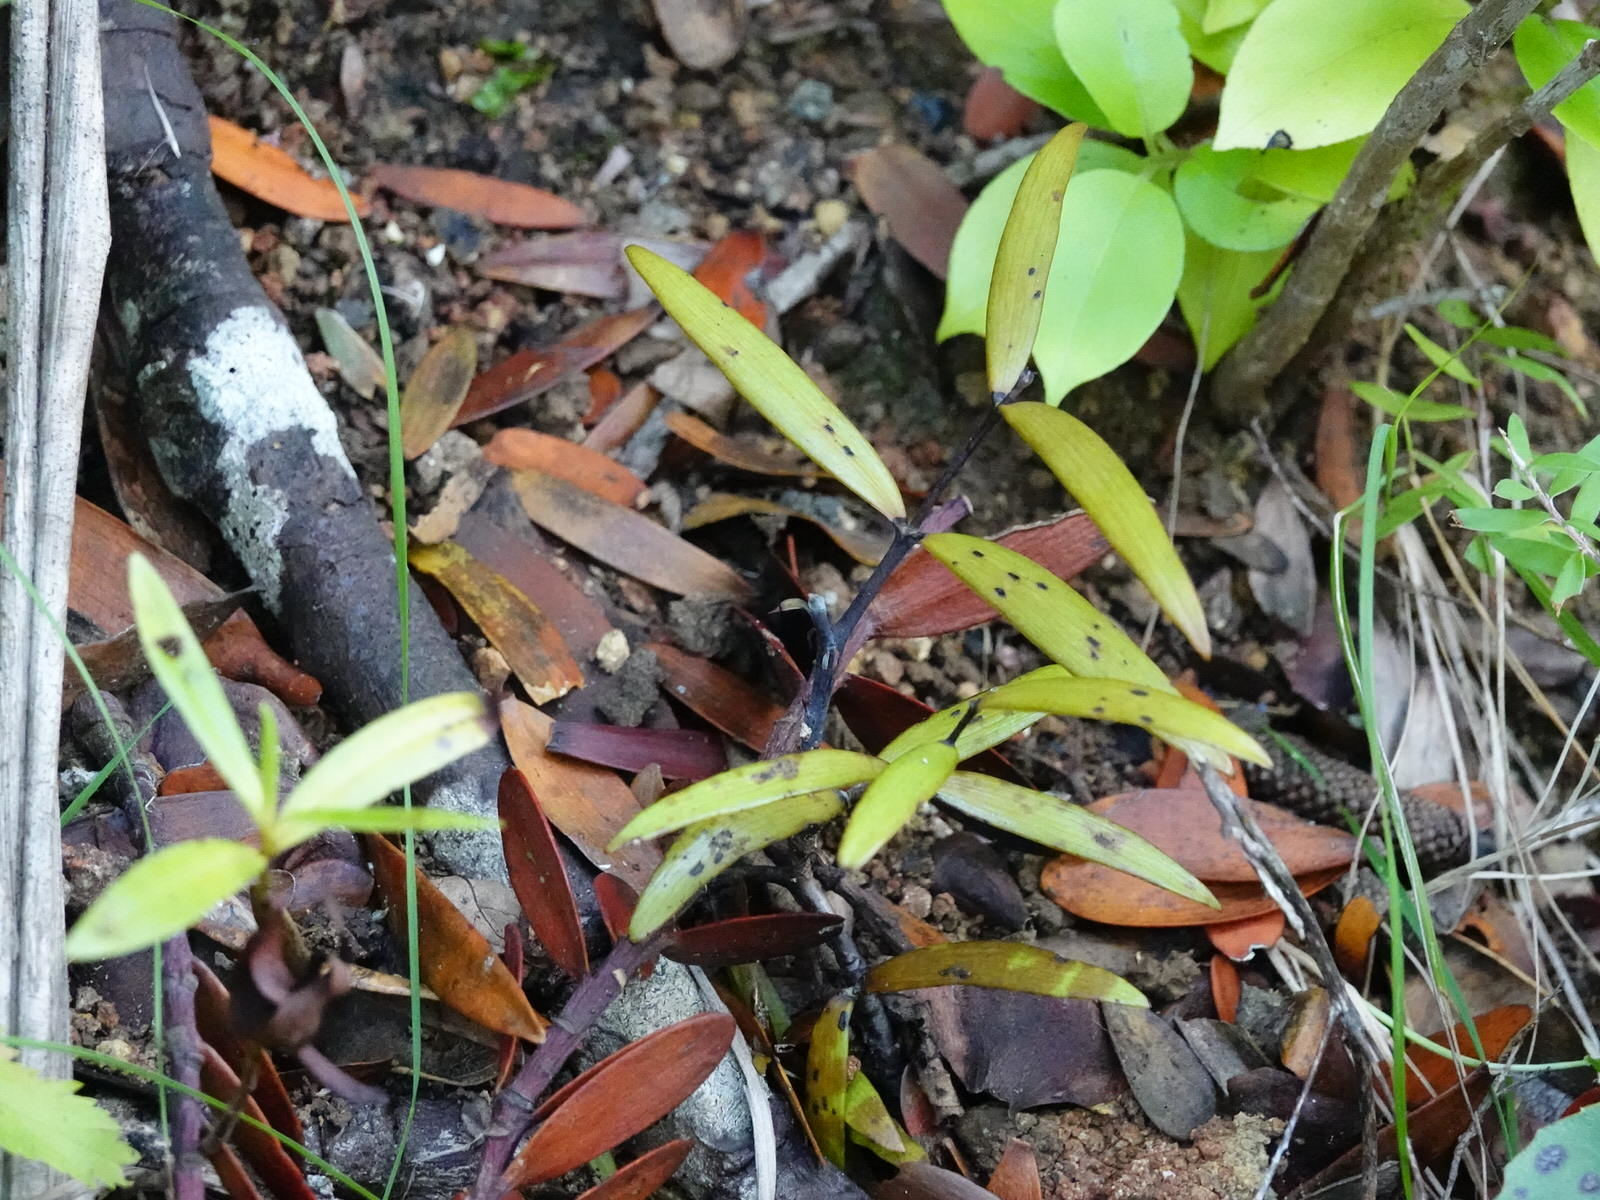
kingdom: Plantae
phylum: Tracheophyta
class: Pinopsida
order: Pinales
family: Araucariaceae
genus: Agathis
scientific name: Agathis australis
